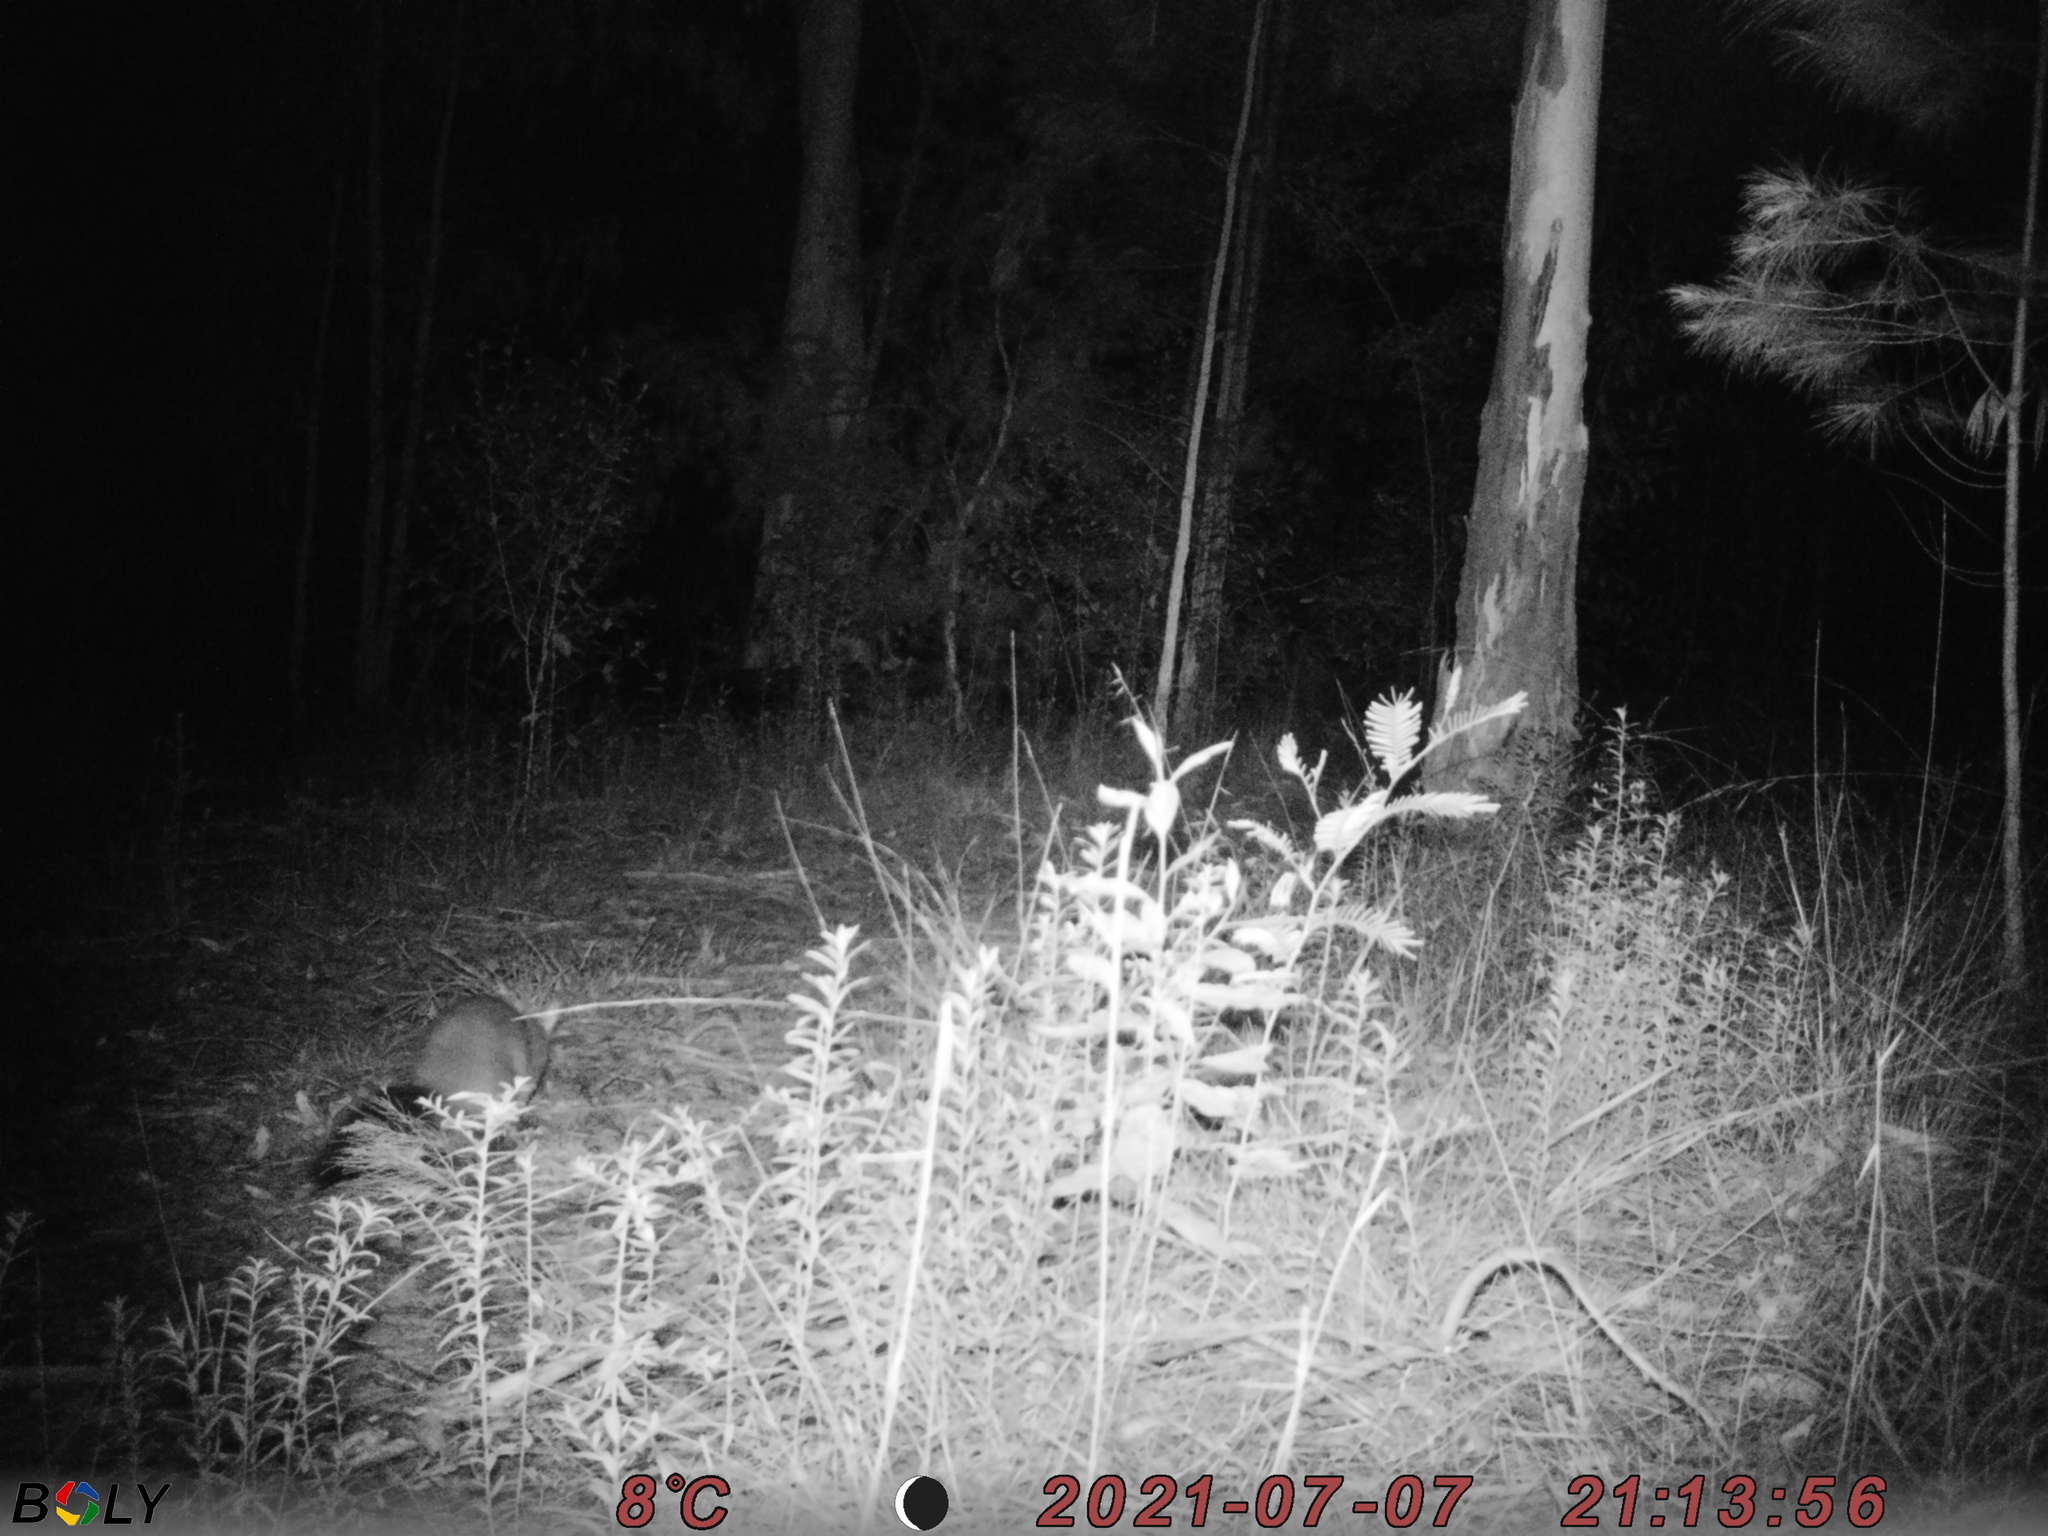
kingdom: Animalia
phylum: Chordata
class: Mammalia
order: Diprotodontia
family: Phalangeridae
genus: Trichosurus
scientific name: Trichosurus vulpecula
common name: Common brushtail
